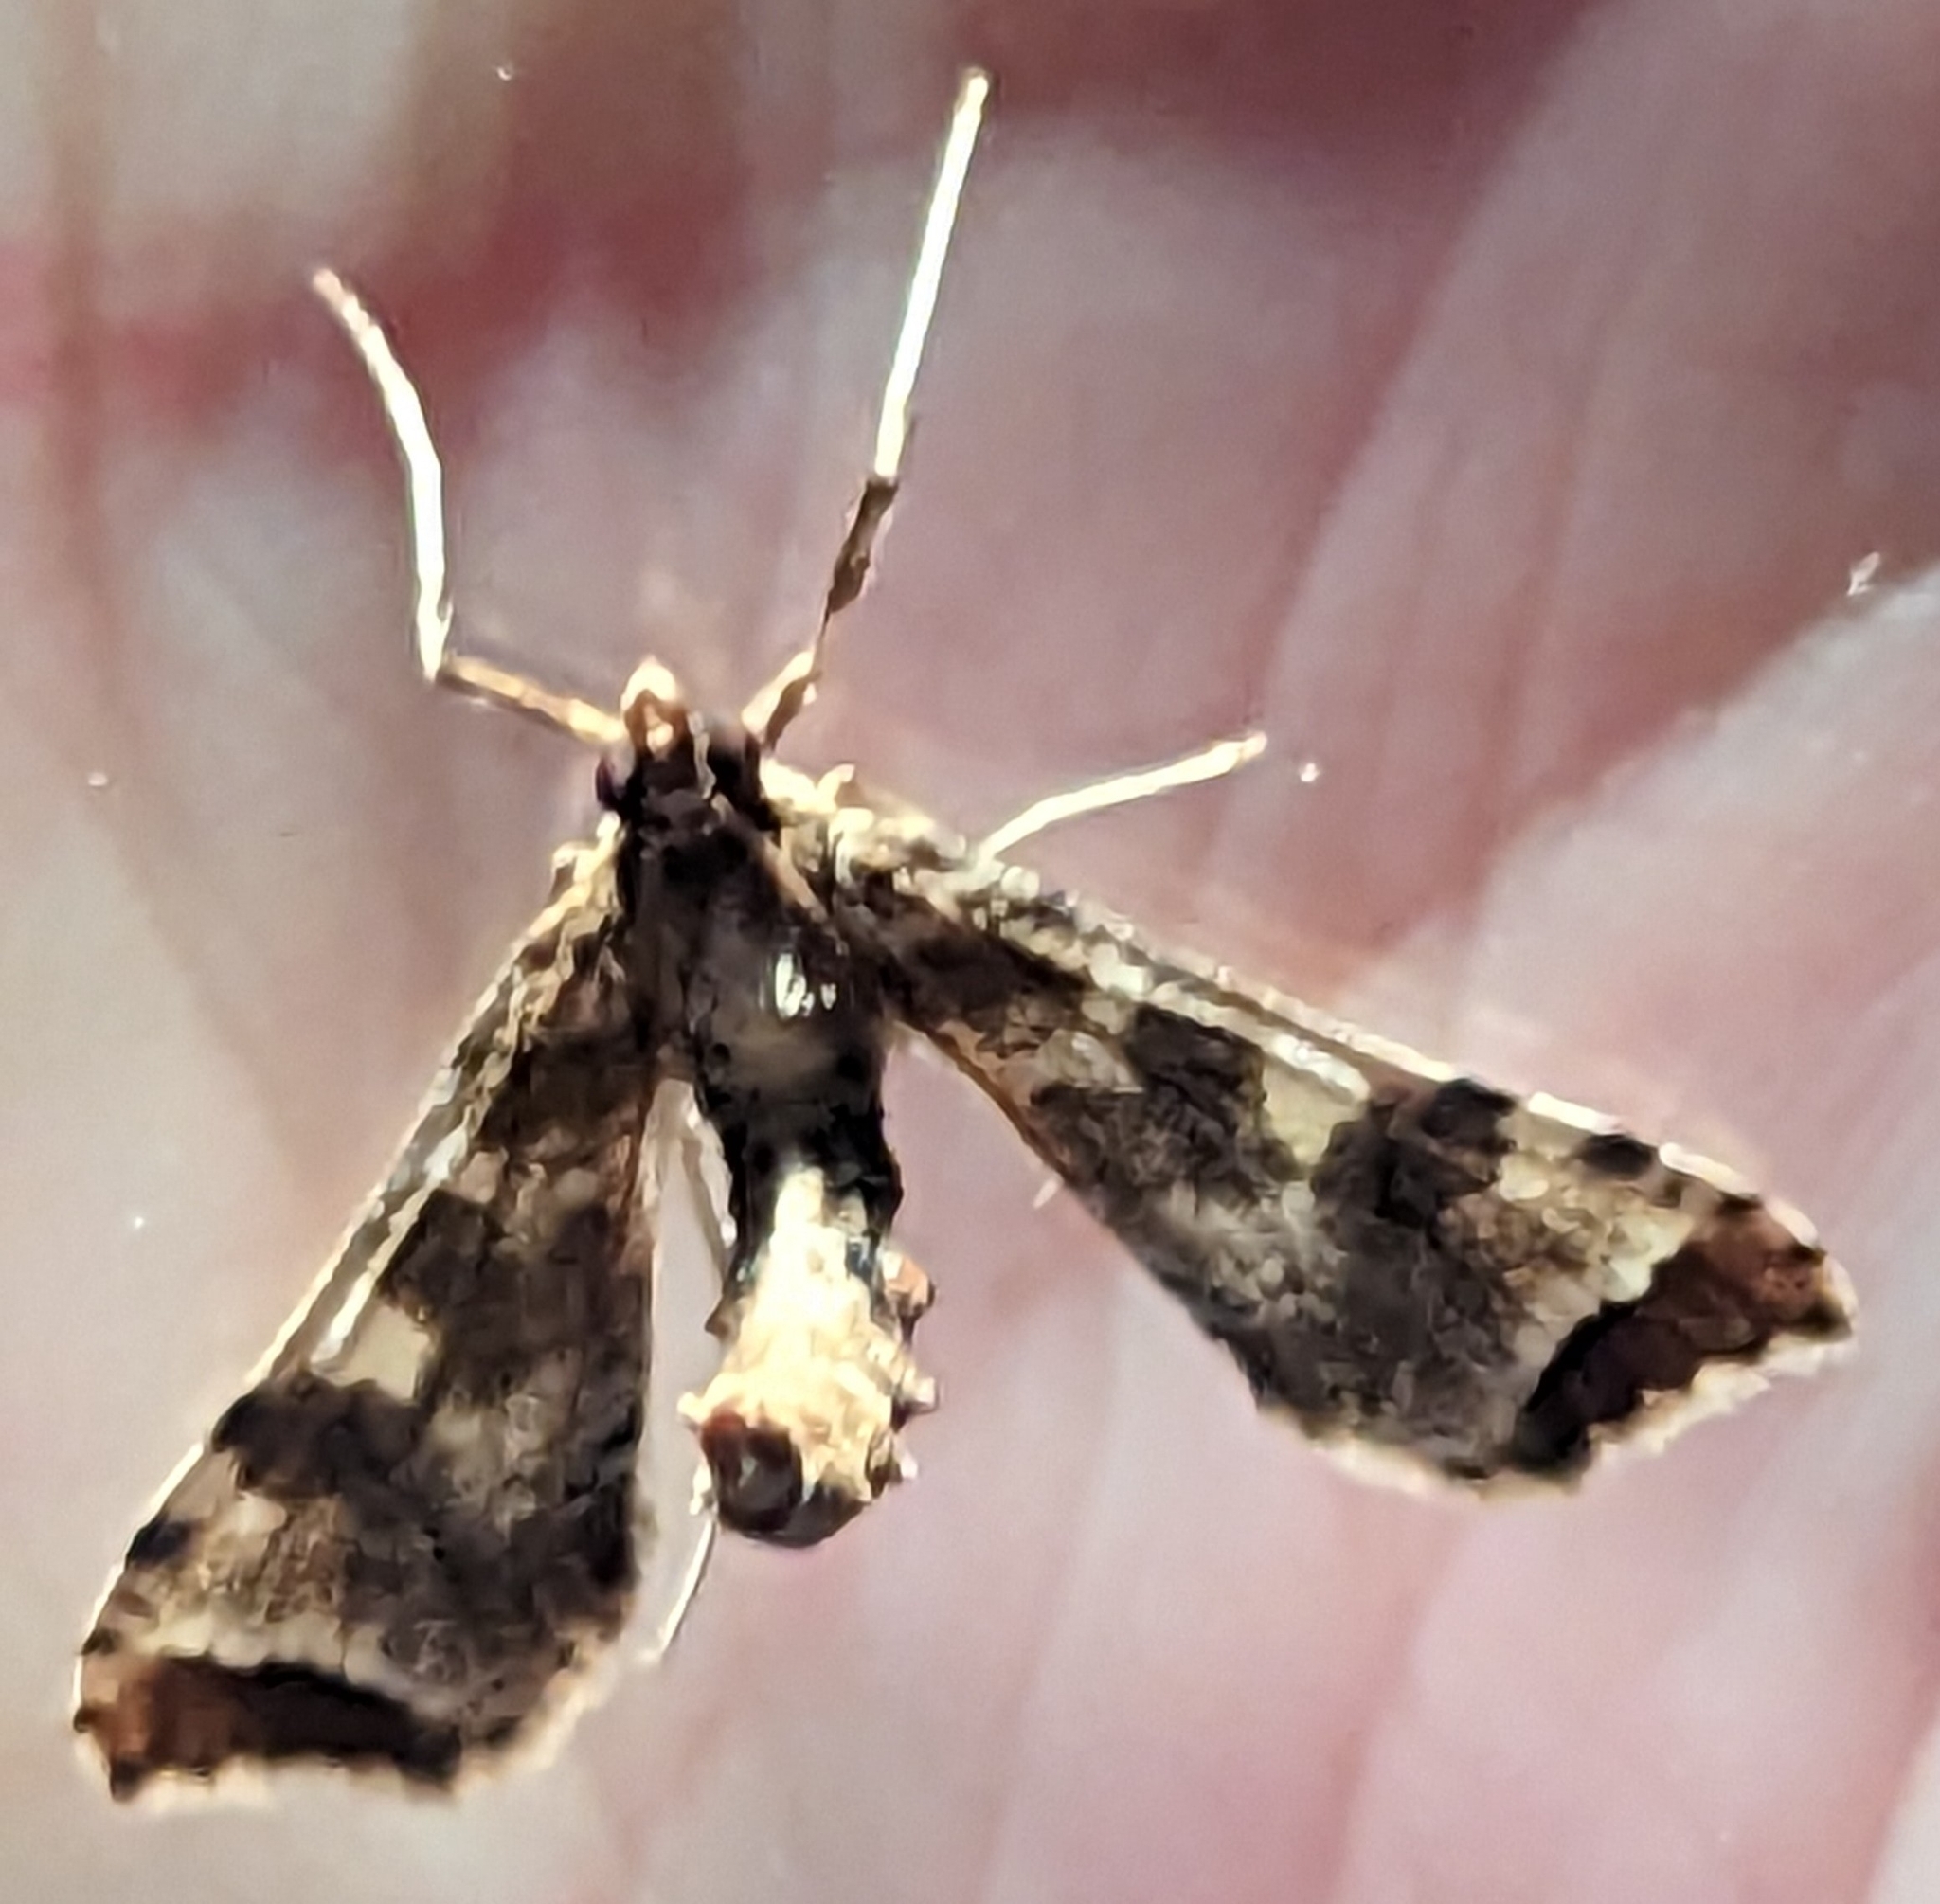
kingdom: Animalia
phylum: Arthropoda
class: Insecta
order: Lepidoptera
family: Crambidae
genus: Sceliodes
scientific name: Sceliodes cordalis
